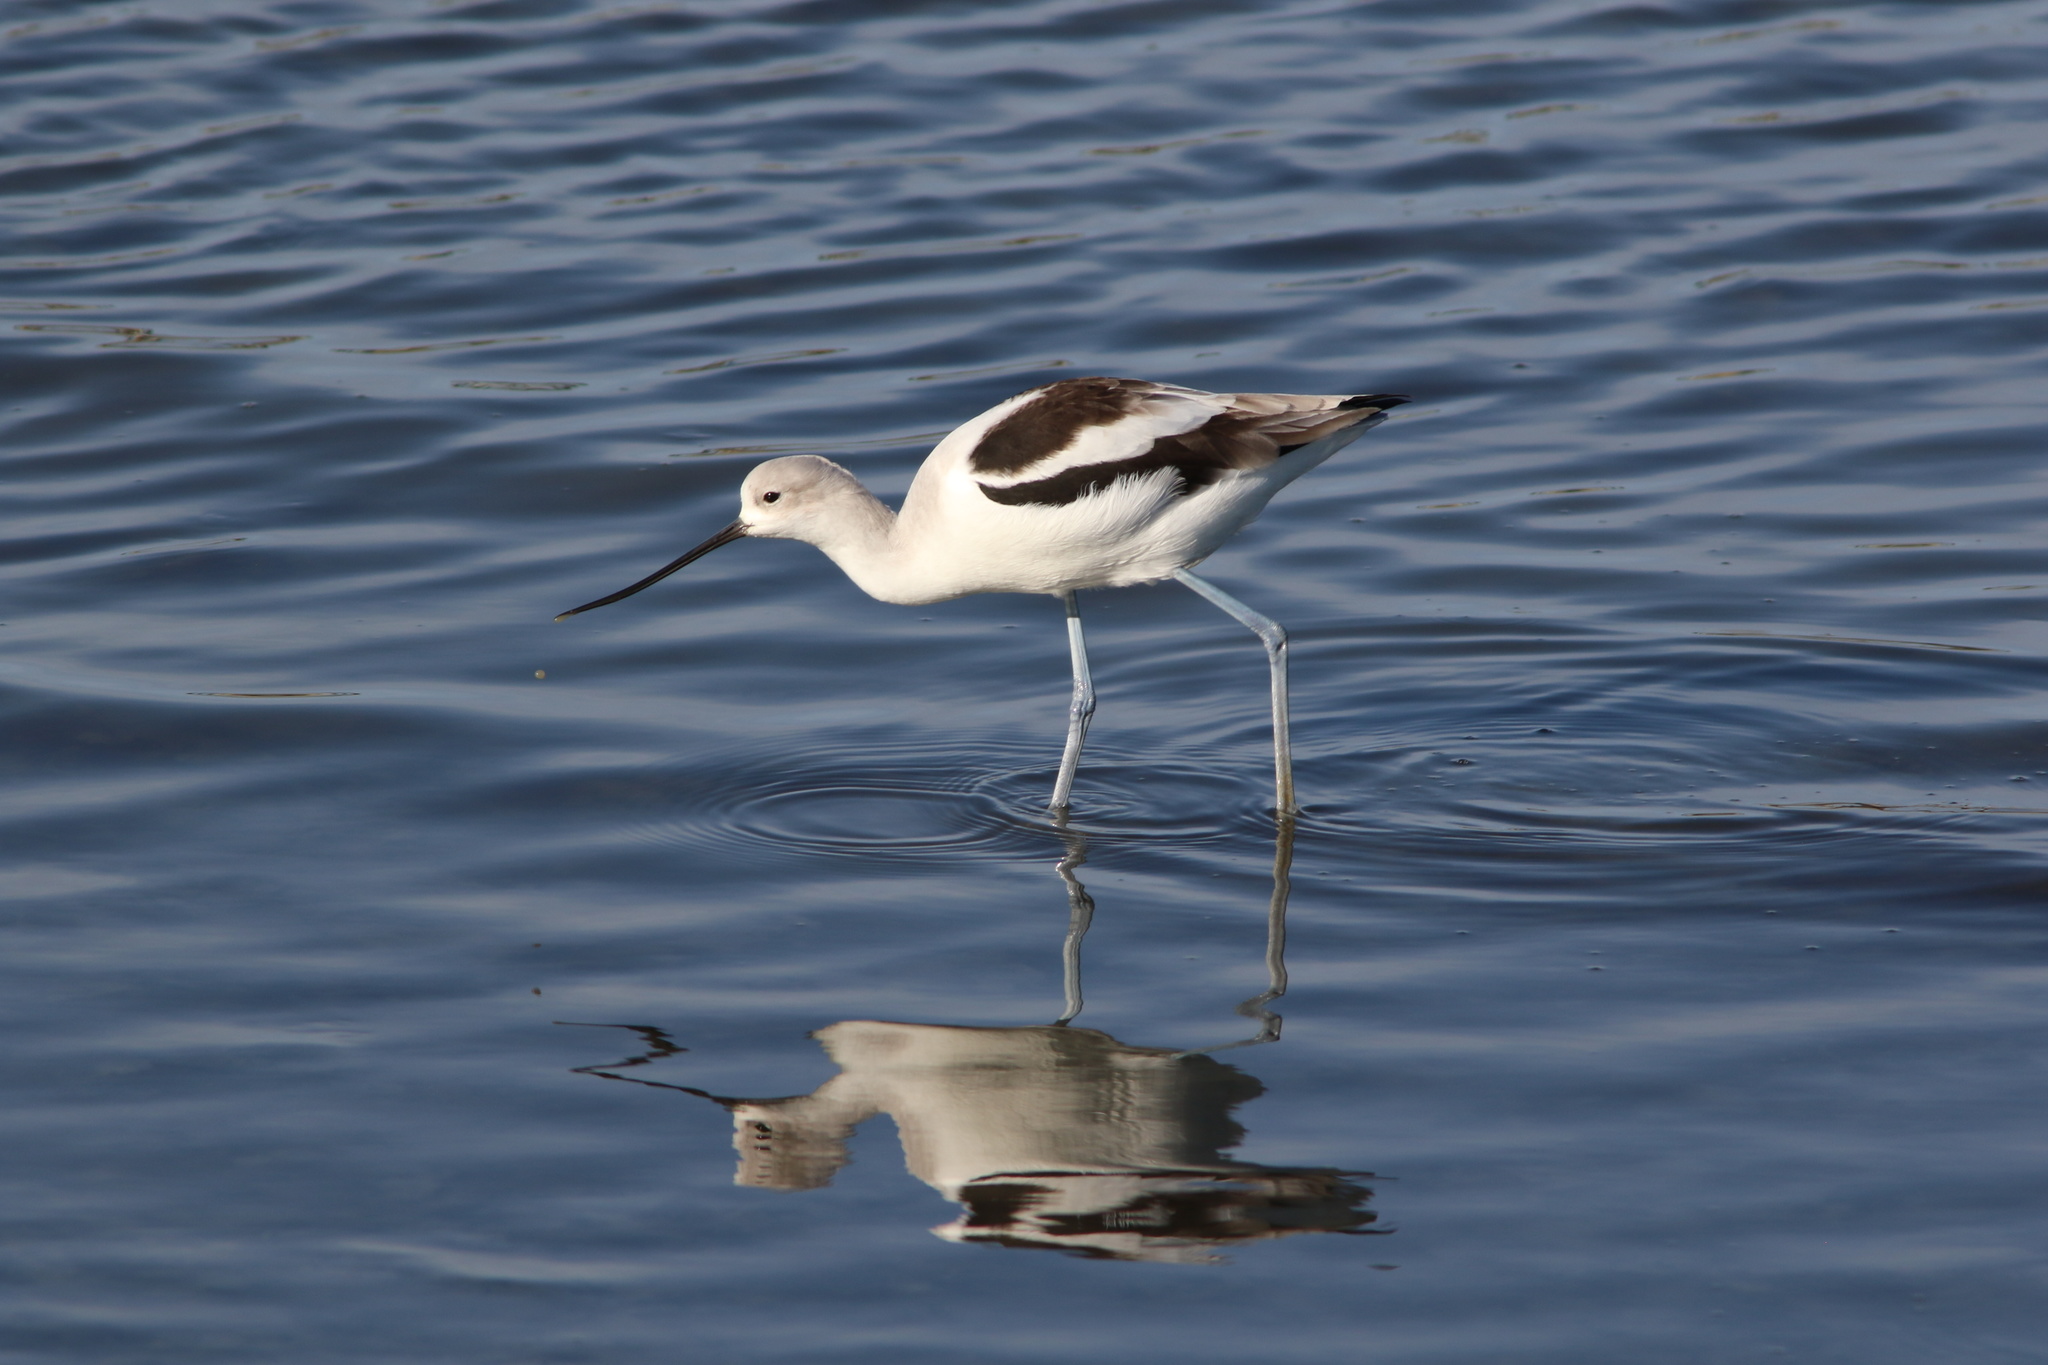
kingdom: Animalia
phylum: Chordata
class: Aves
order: Charadriiformes
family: Recurvirostridae
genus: Recurvirostra
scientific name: Recurvirostra americana
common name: American avocet
